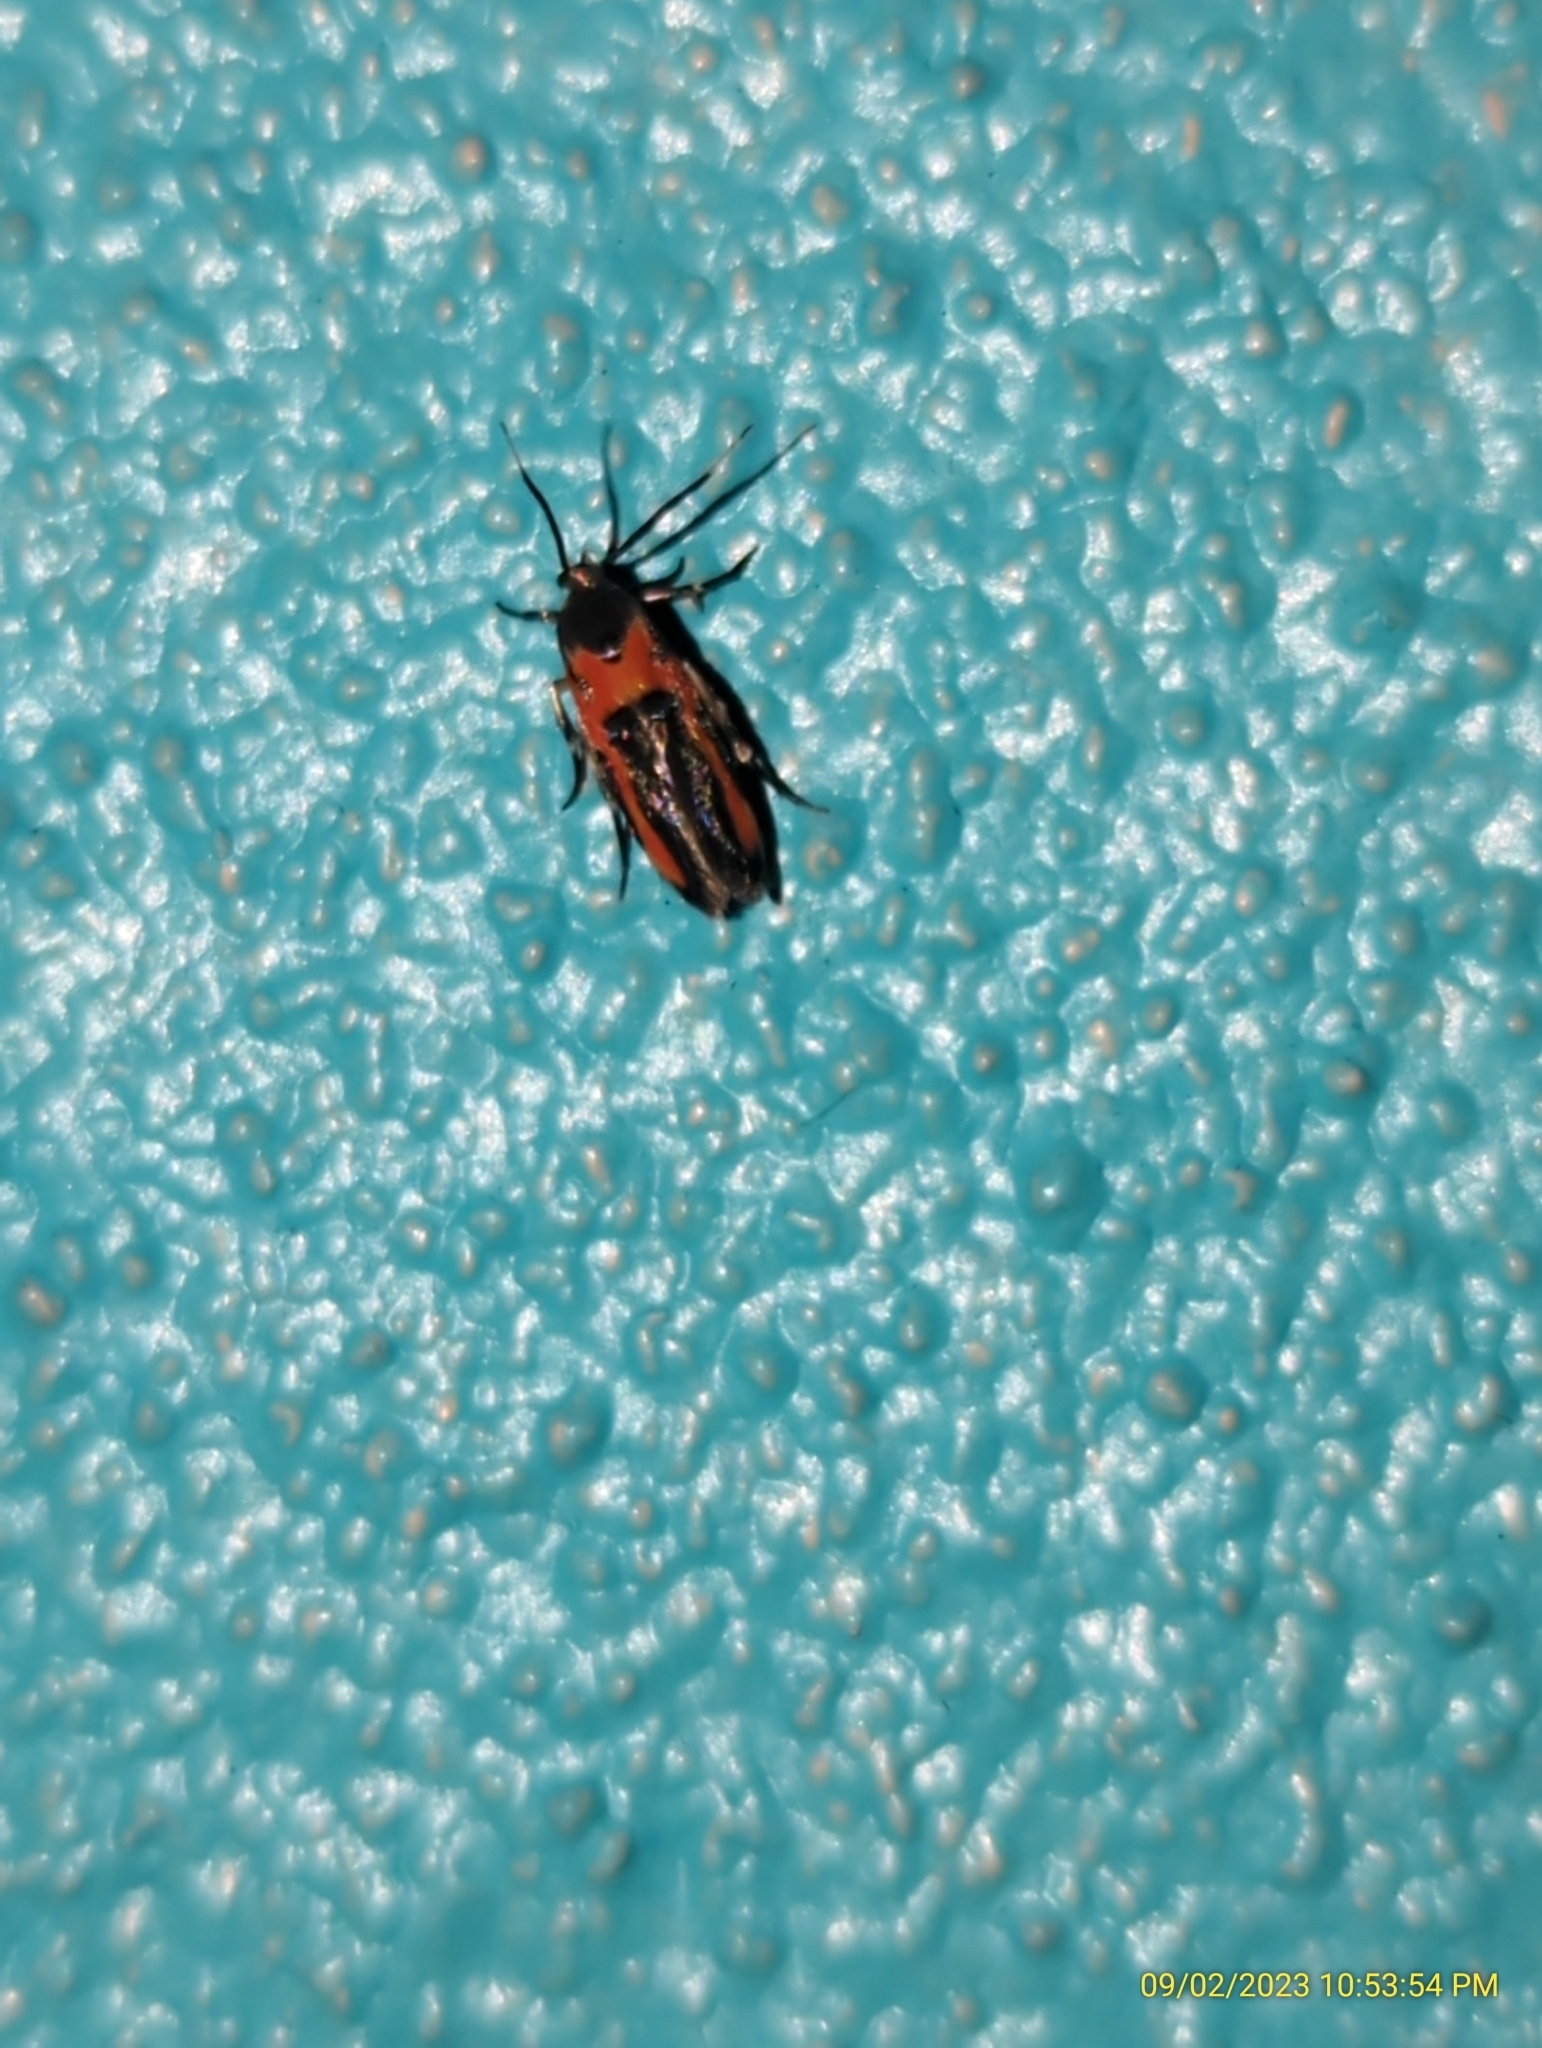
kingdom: Animalia
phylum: Arthropoda
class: Insecta
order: Lepidoptera
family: Cosmopterigidae
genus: Euclemensia
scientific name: Euclemensia bassettella
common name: Kermes scale moth
